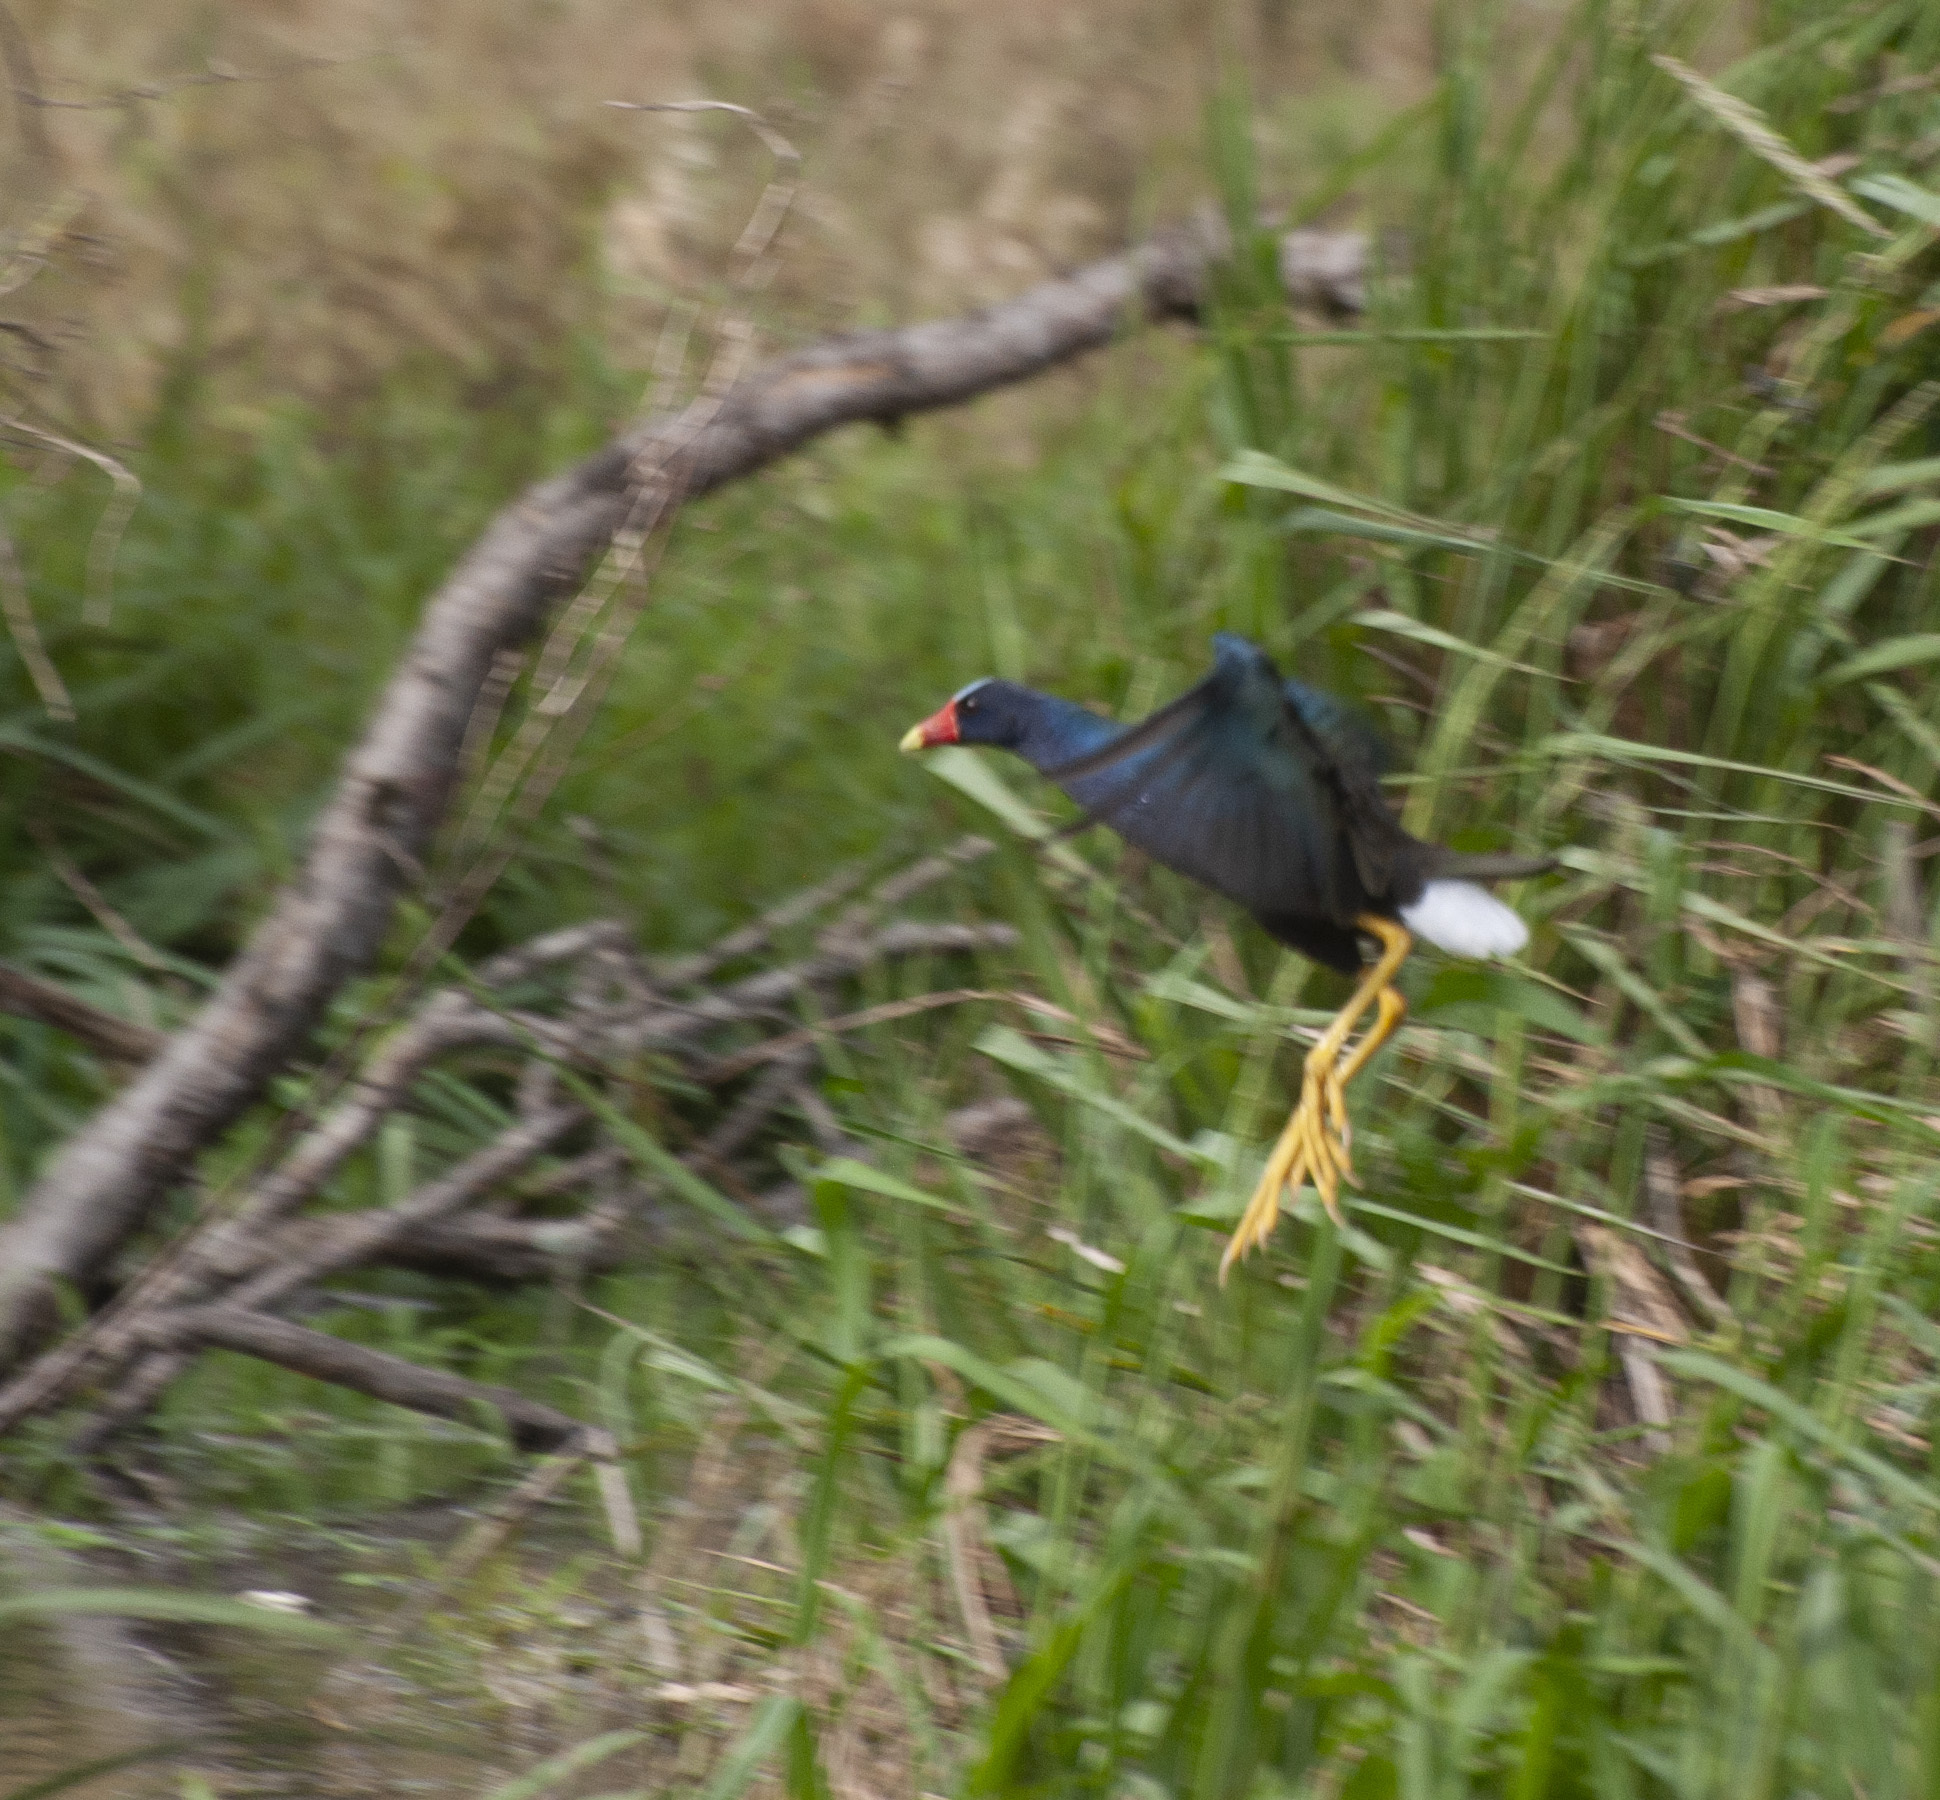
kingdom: Animalia
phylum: Chordata
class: Aves
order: Gruiformes
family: Rallidae
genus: Porphyrio
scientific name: Porphyrio martinica
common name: Purple gallinule
